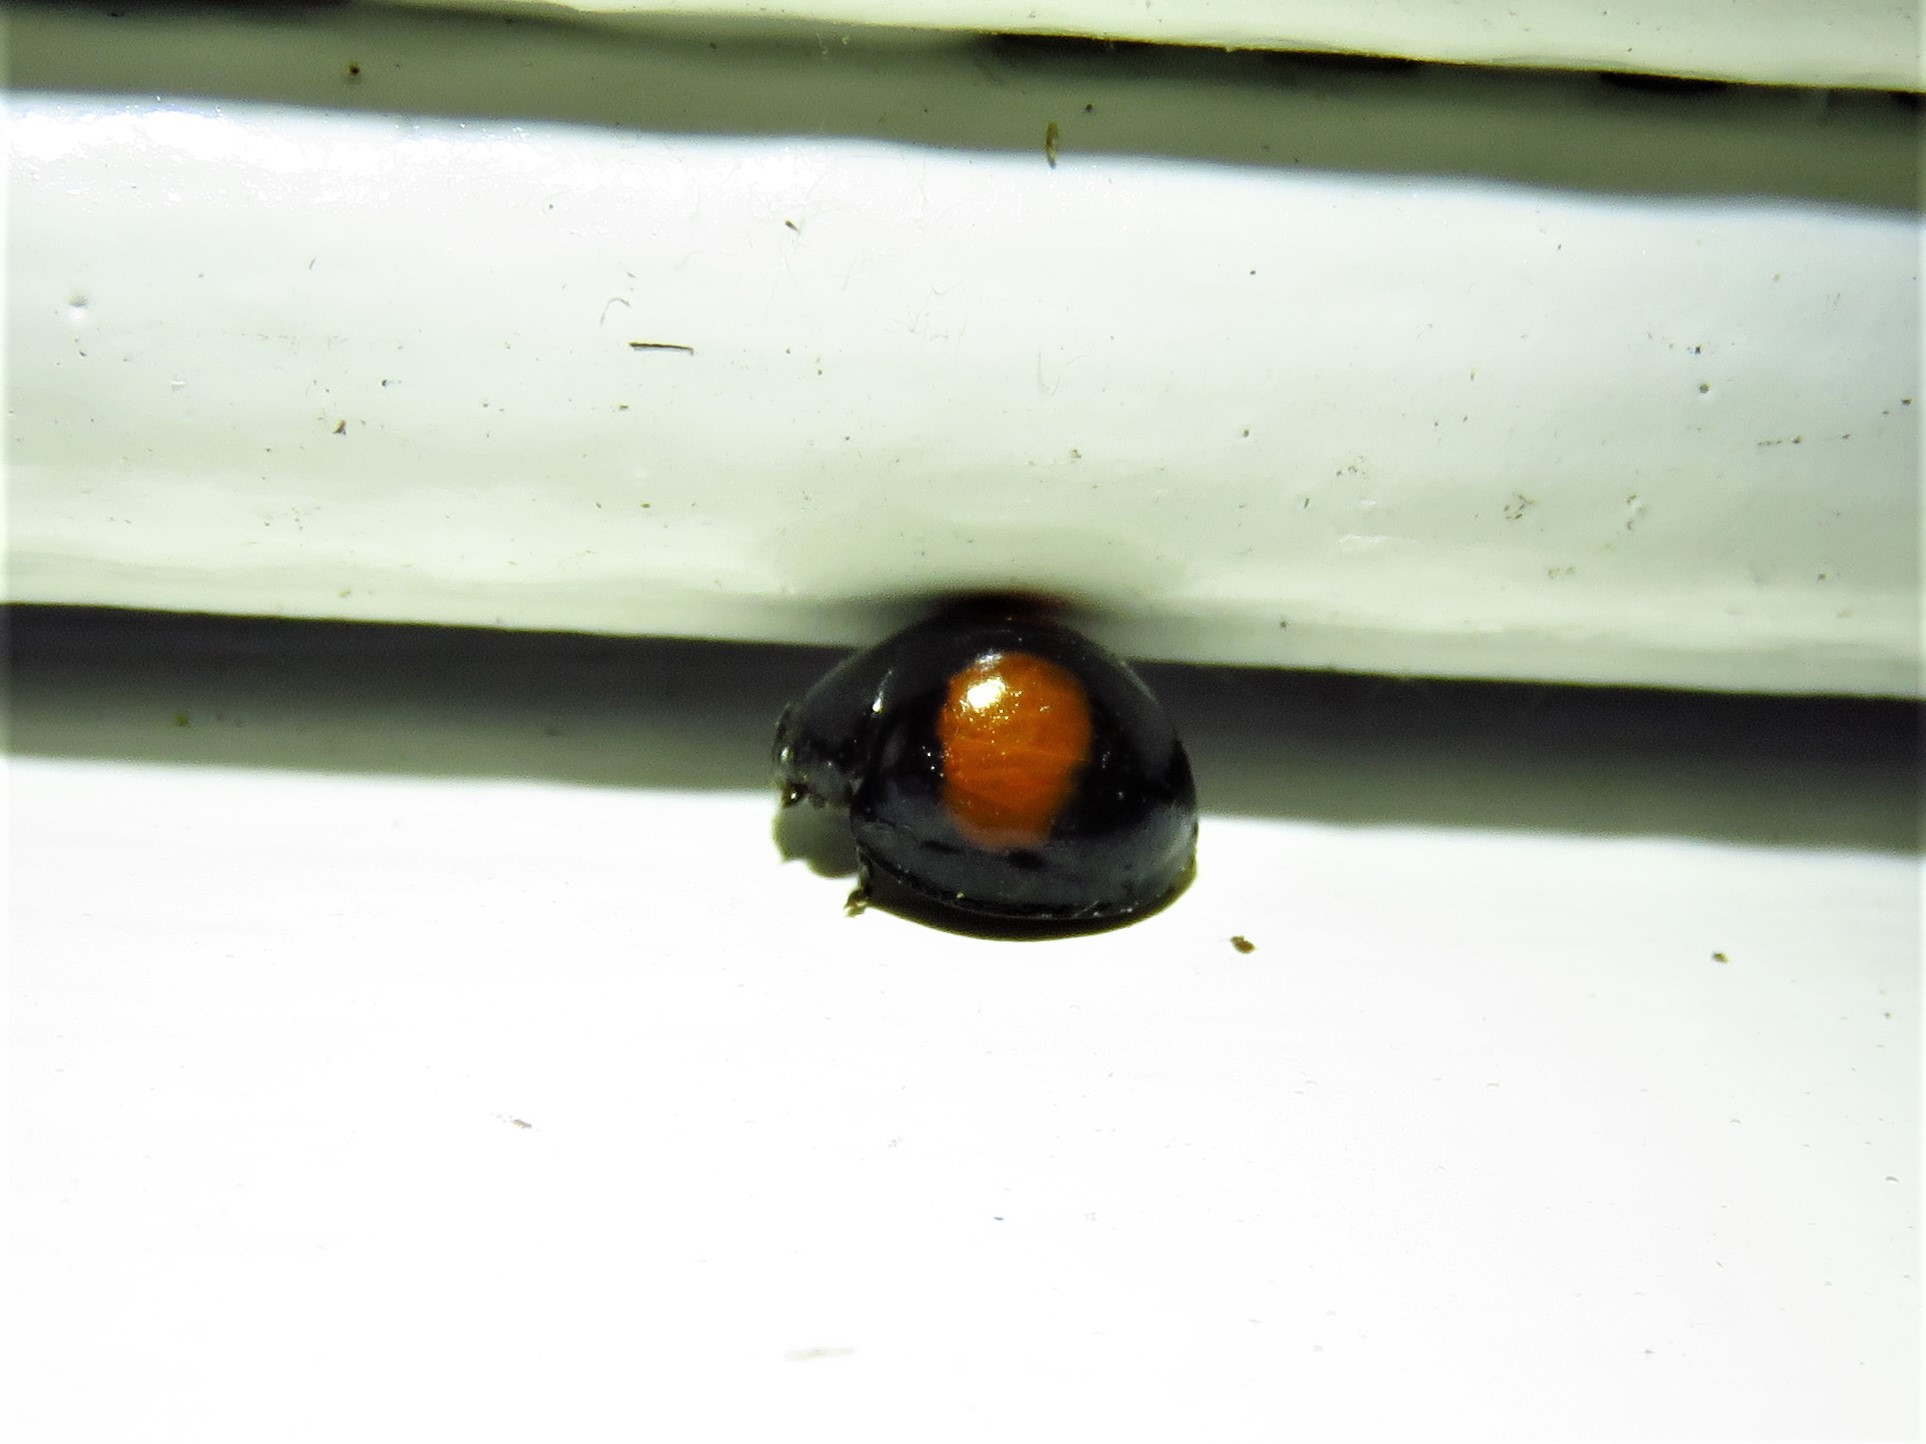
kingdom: Animalia
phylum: Arthropoda
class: Insecta
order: Coleoptera
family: Coccinellidae
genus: Chilocorus
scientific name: Chilocorus cacti
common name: Cactus lady beetle
